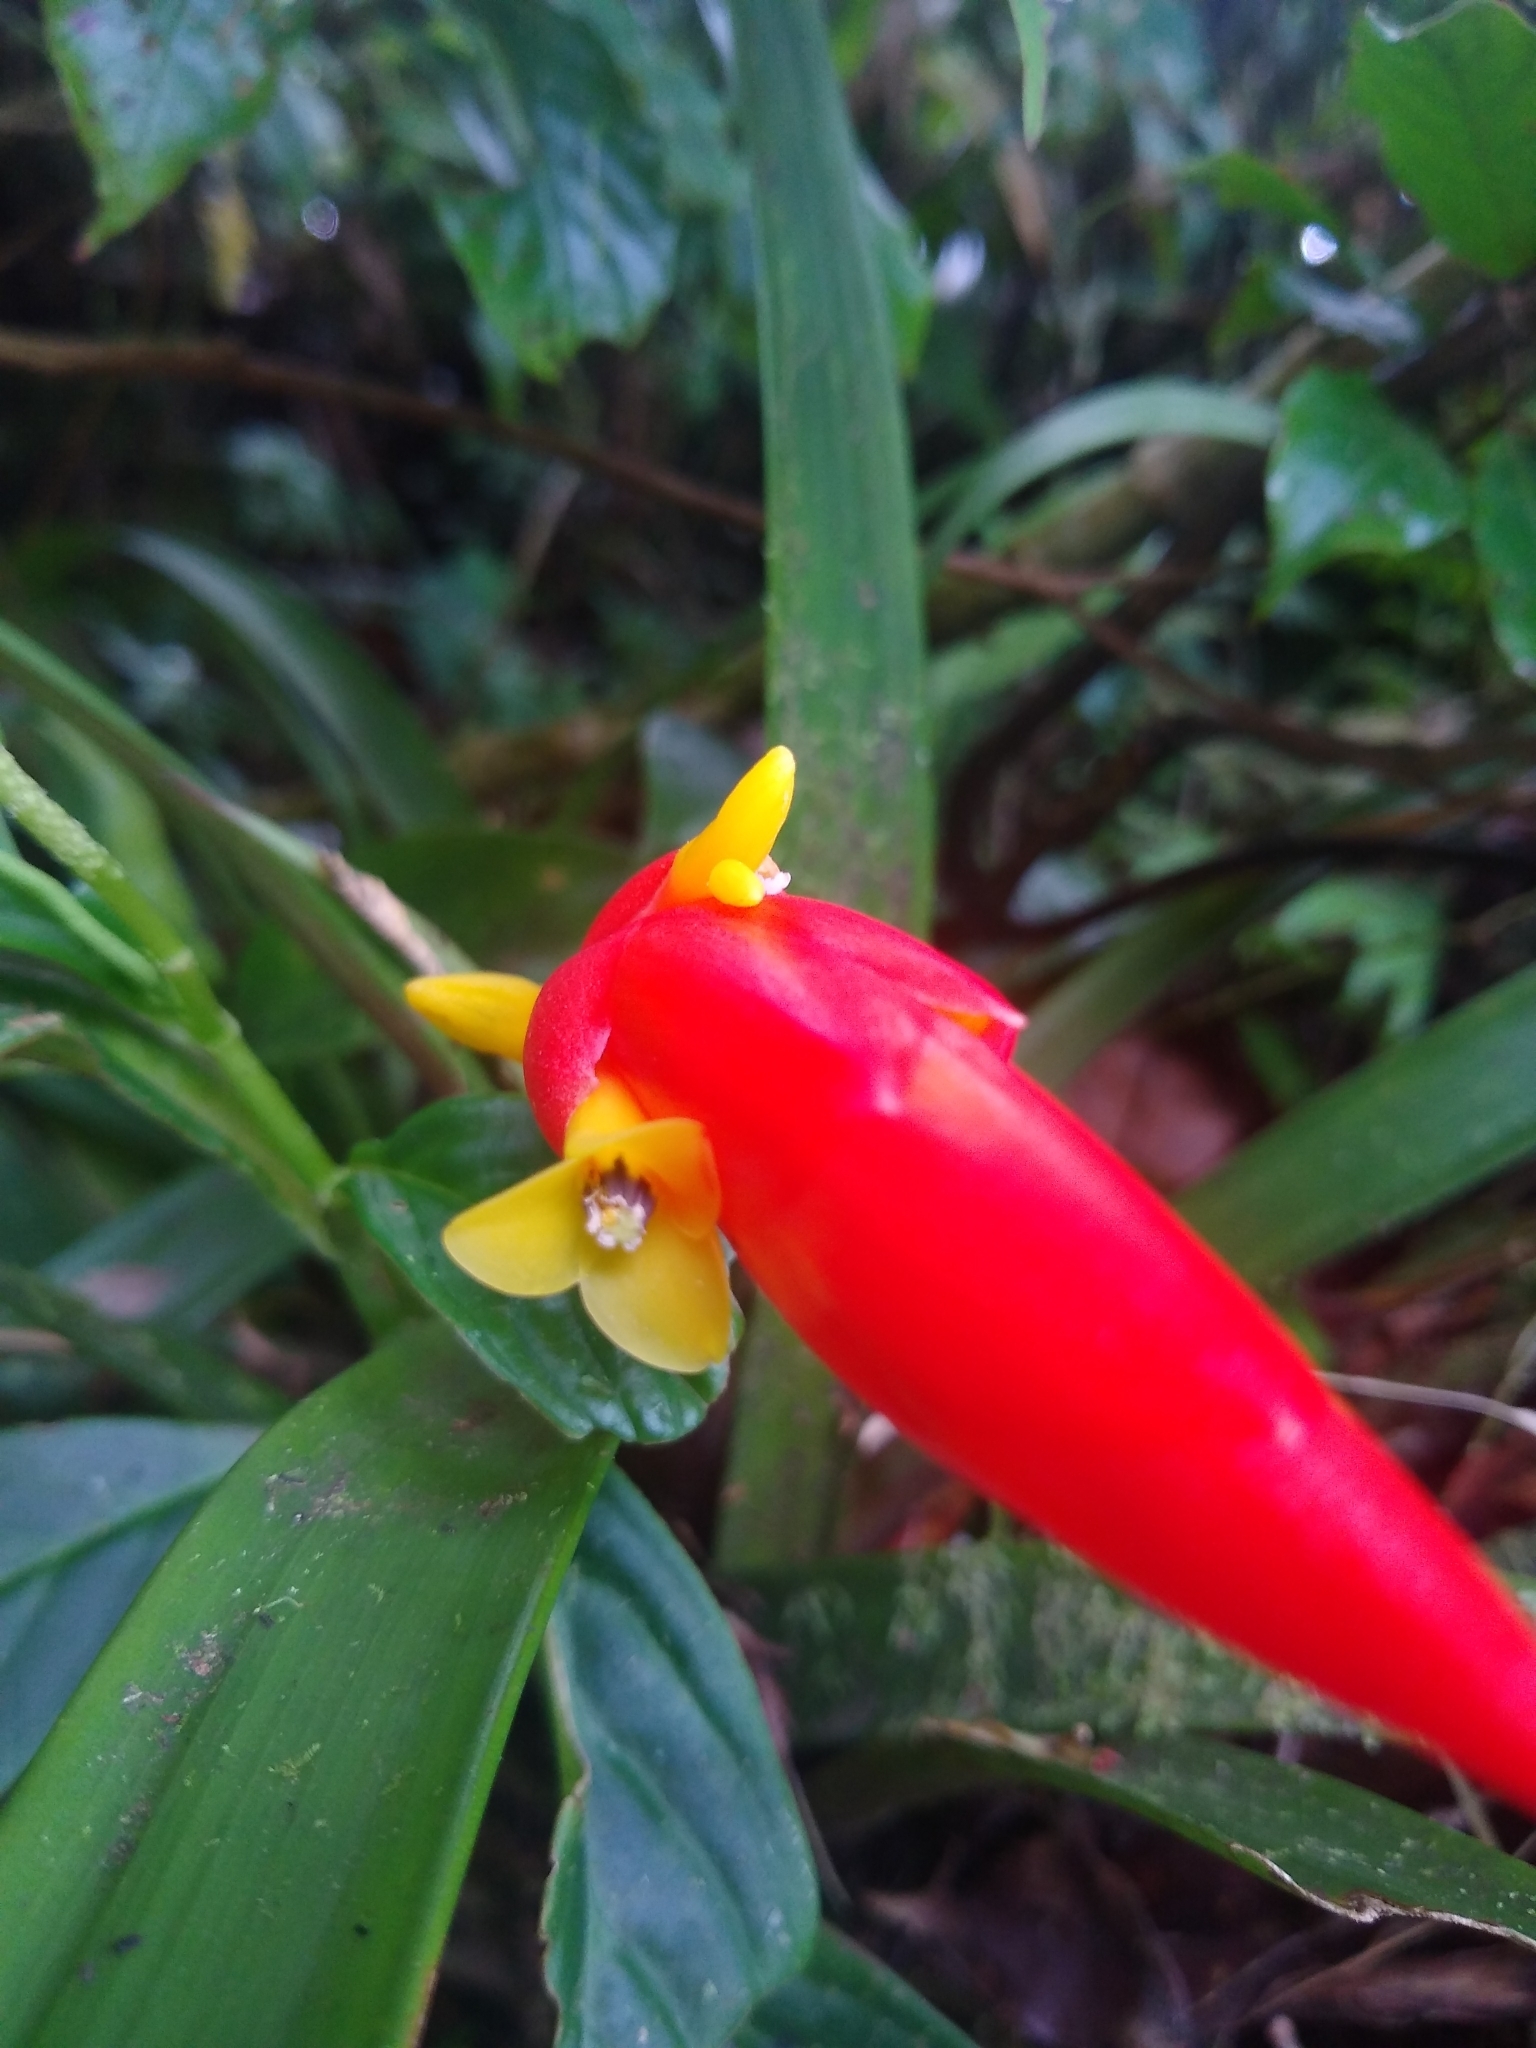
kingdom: Plantae
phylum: Tracheophyta
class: Liliopsida
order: Poales
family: Bromeliaceae
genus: Guzmania
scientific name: Guzmania nicaraguensis
